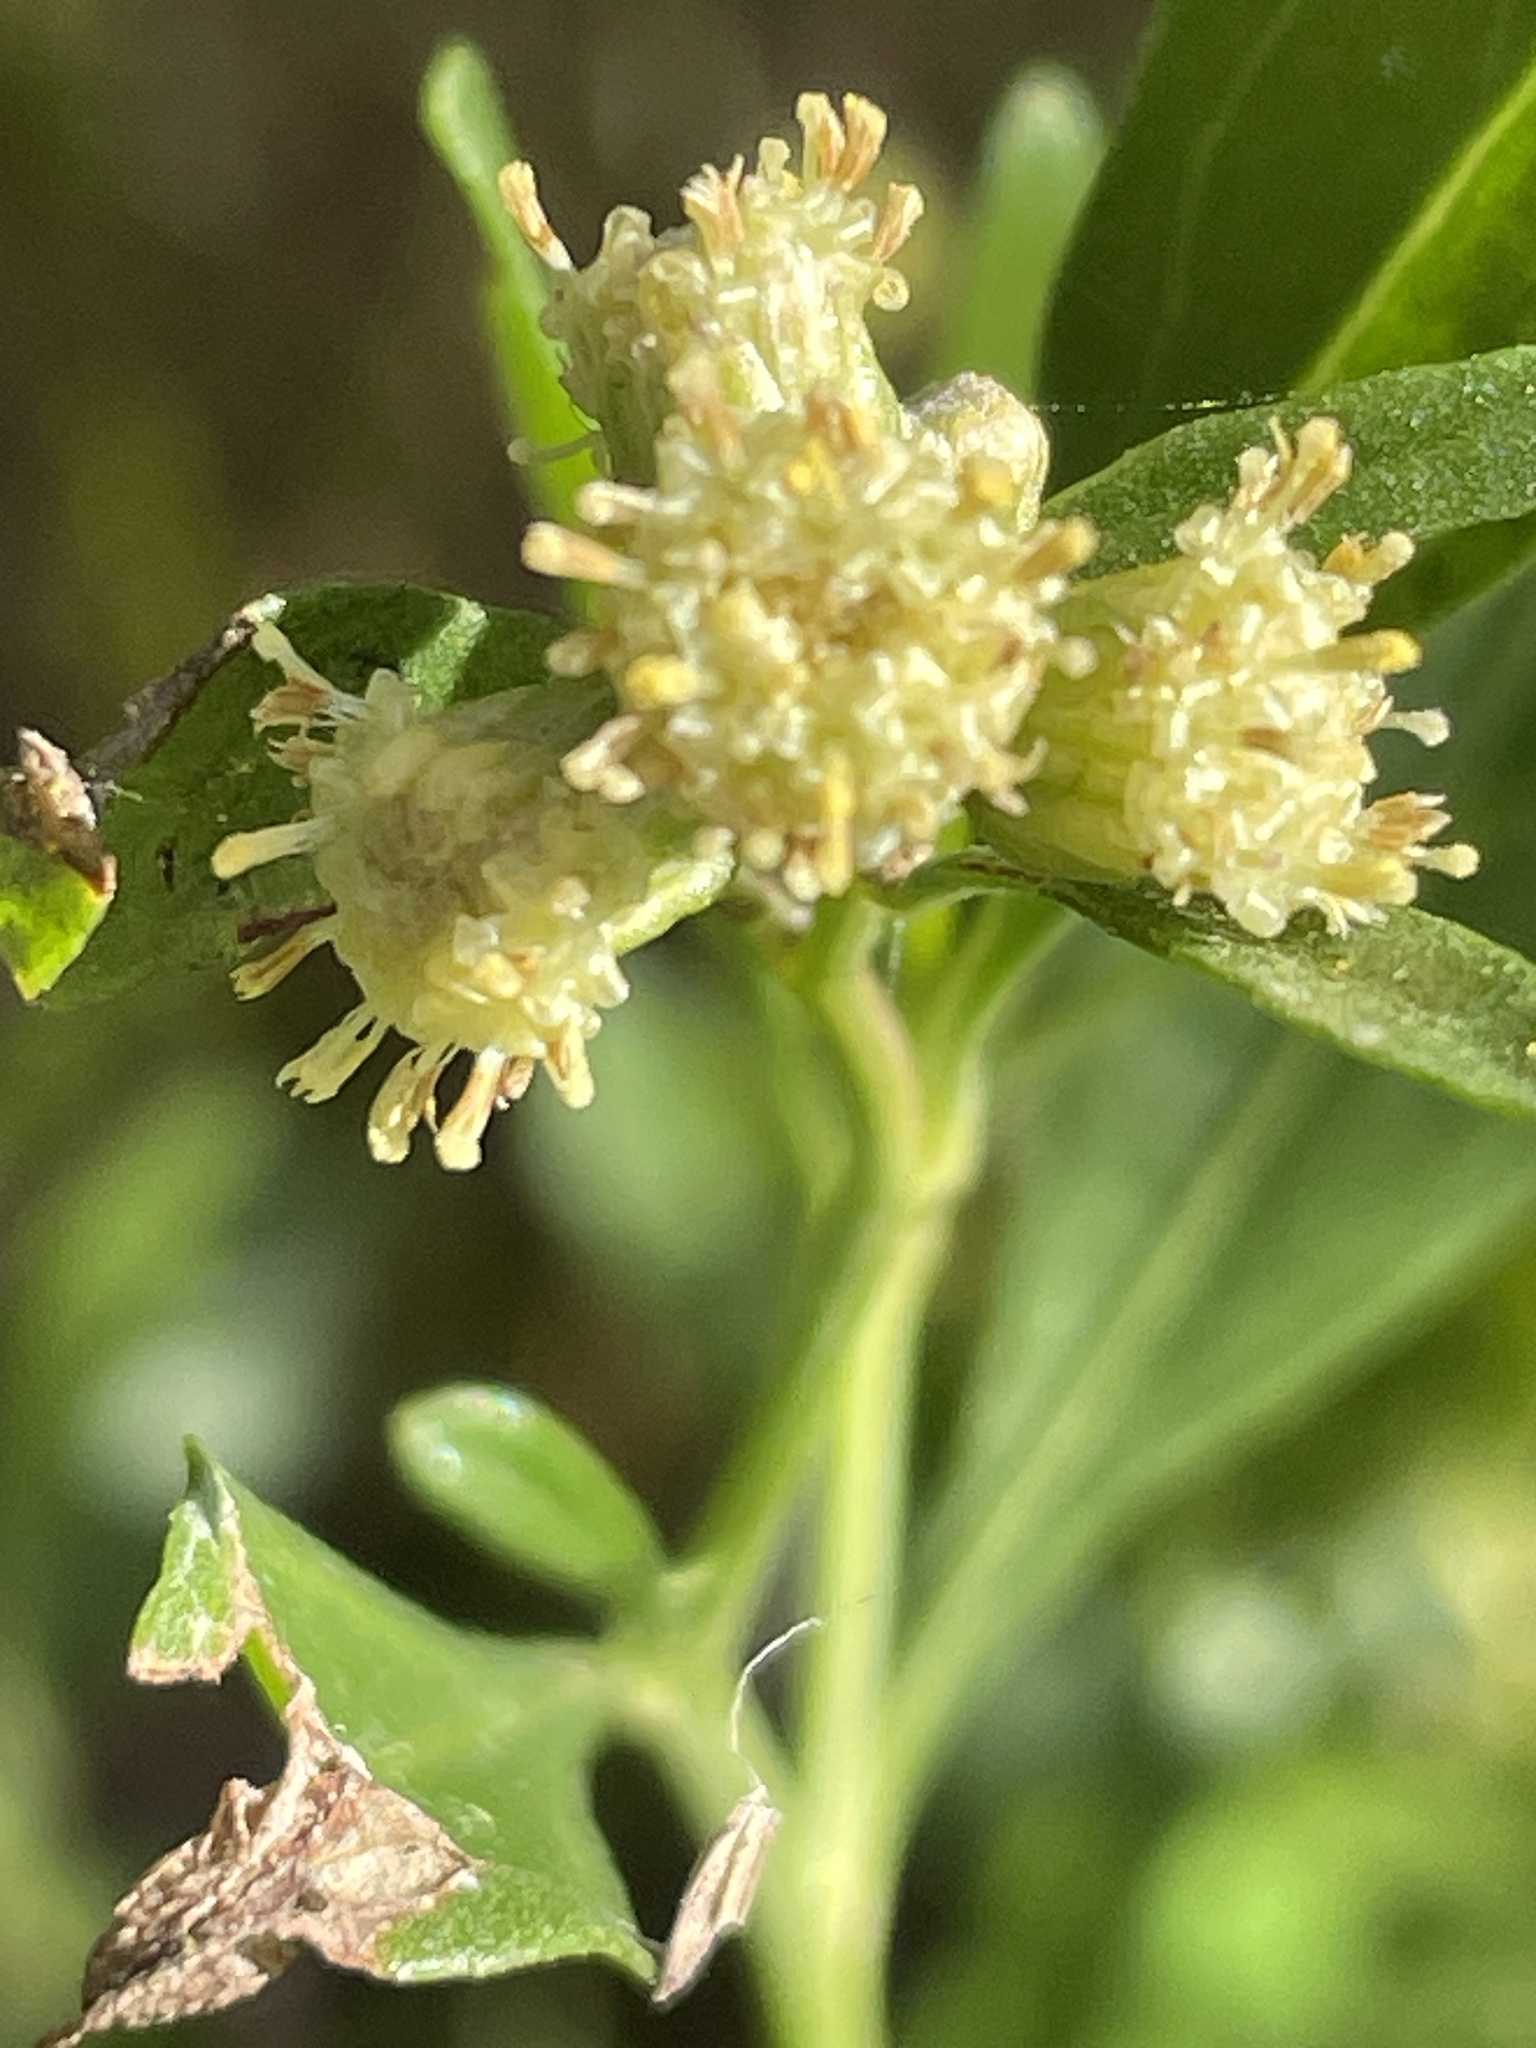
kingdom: Plantae
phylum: Tracheophyta
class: Magnoliopsida
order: Asterales
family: Asteraceae
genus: Baccharis
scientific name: Baccharis halimifolia
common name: Eastern baccharis
